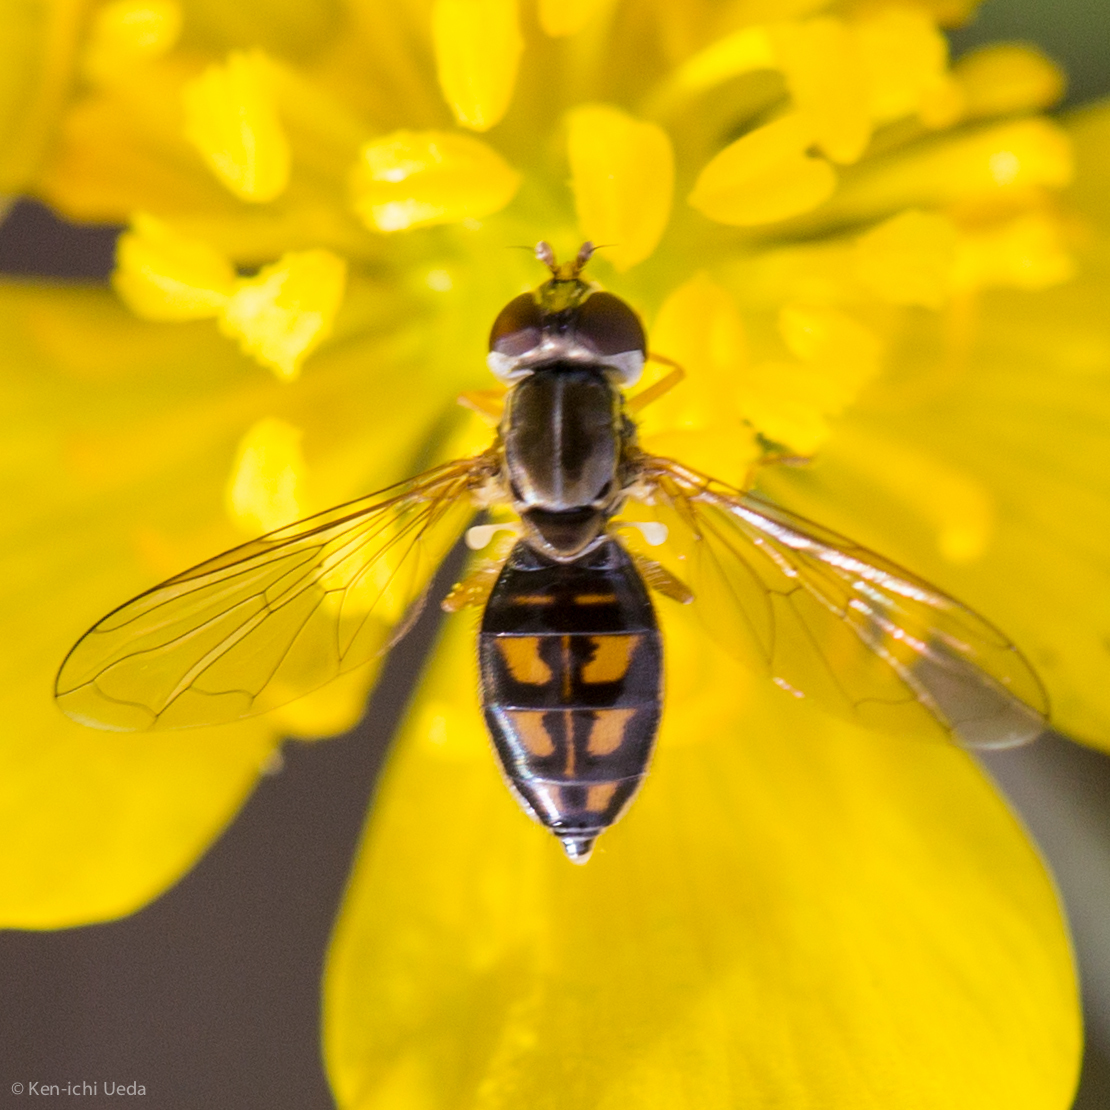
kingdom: Animalia
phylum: Arthropoda
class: Insecta
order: Diptera
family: Syrphidae
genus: Toxomerus
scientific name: Toxomerus marginatus
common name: Syrphid fly
